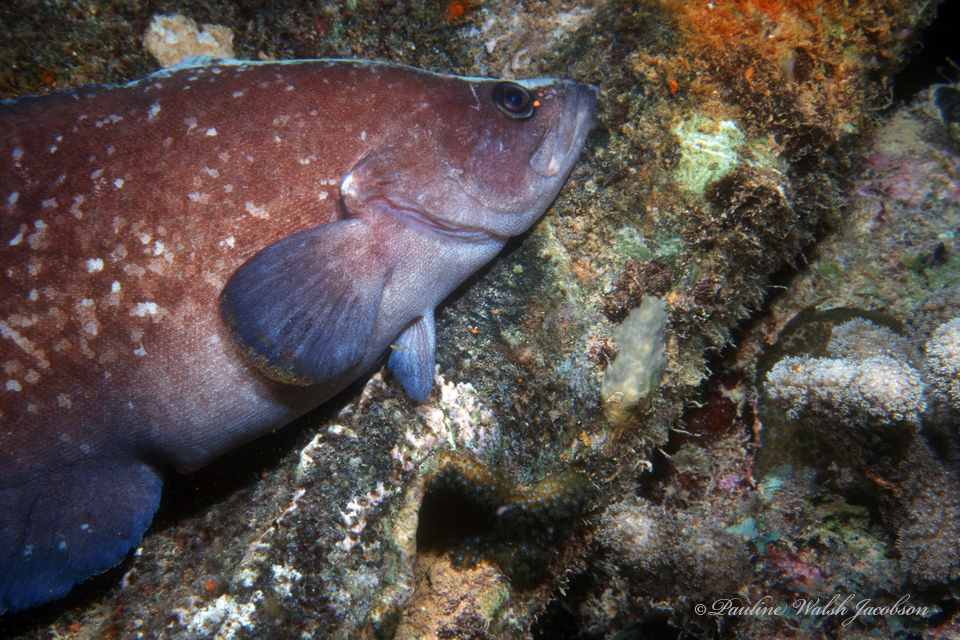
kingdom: Animalia
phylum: Chordata
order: Perciformes
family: Serranidae
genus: Rypticus
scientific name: Rypticus saponaceus
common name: Soapfish
